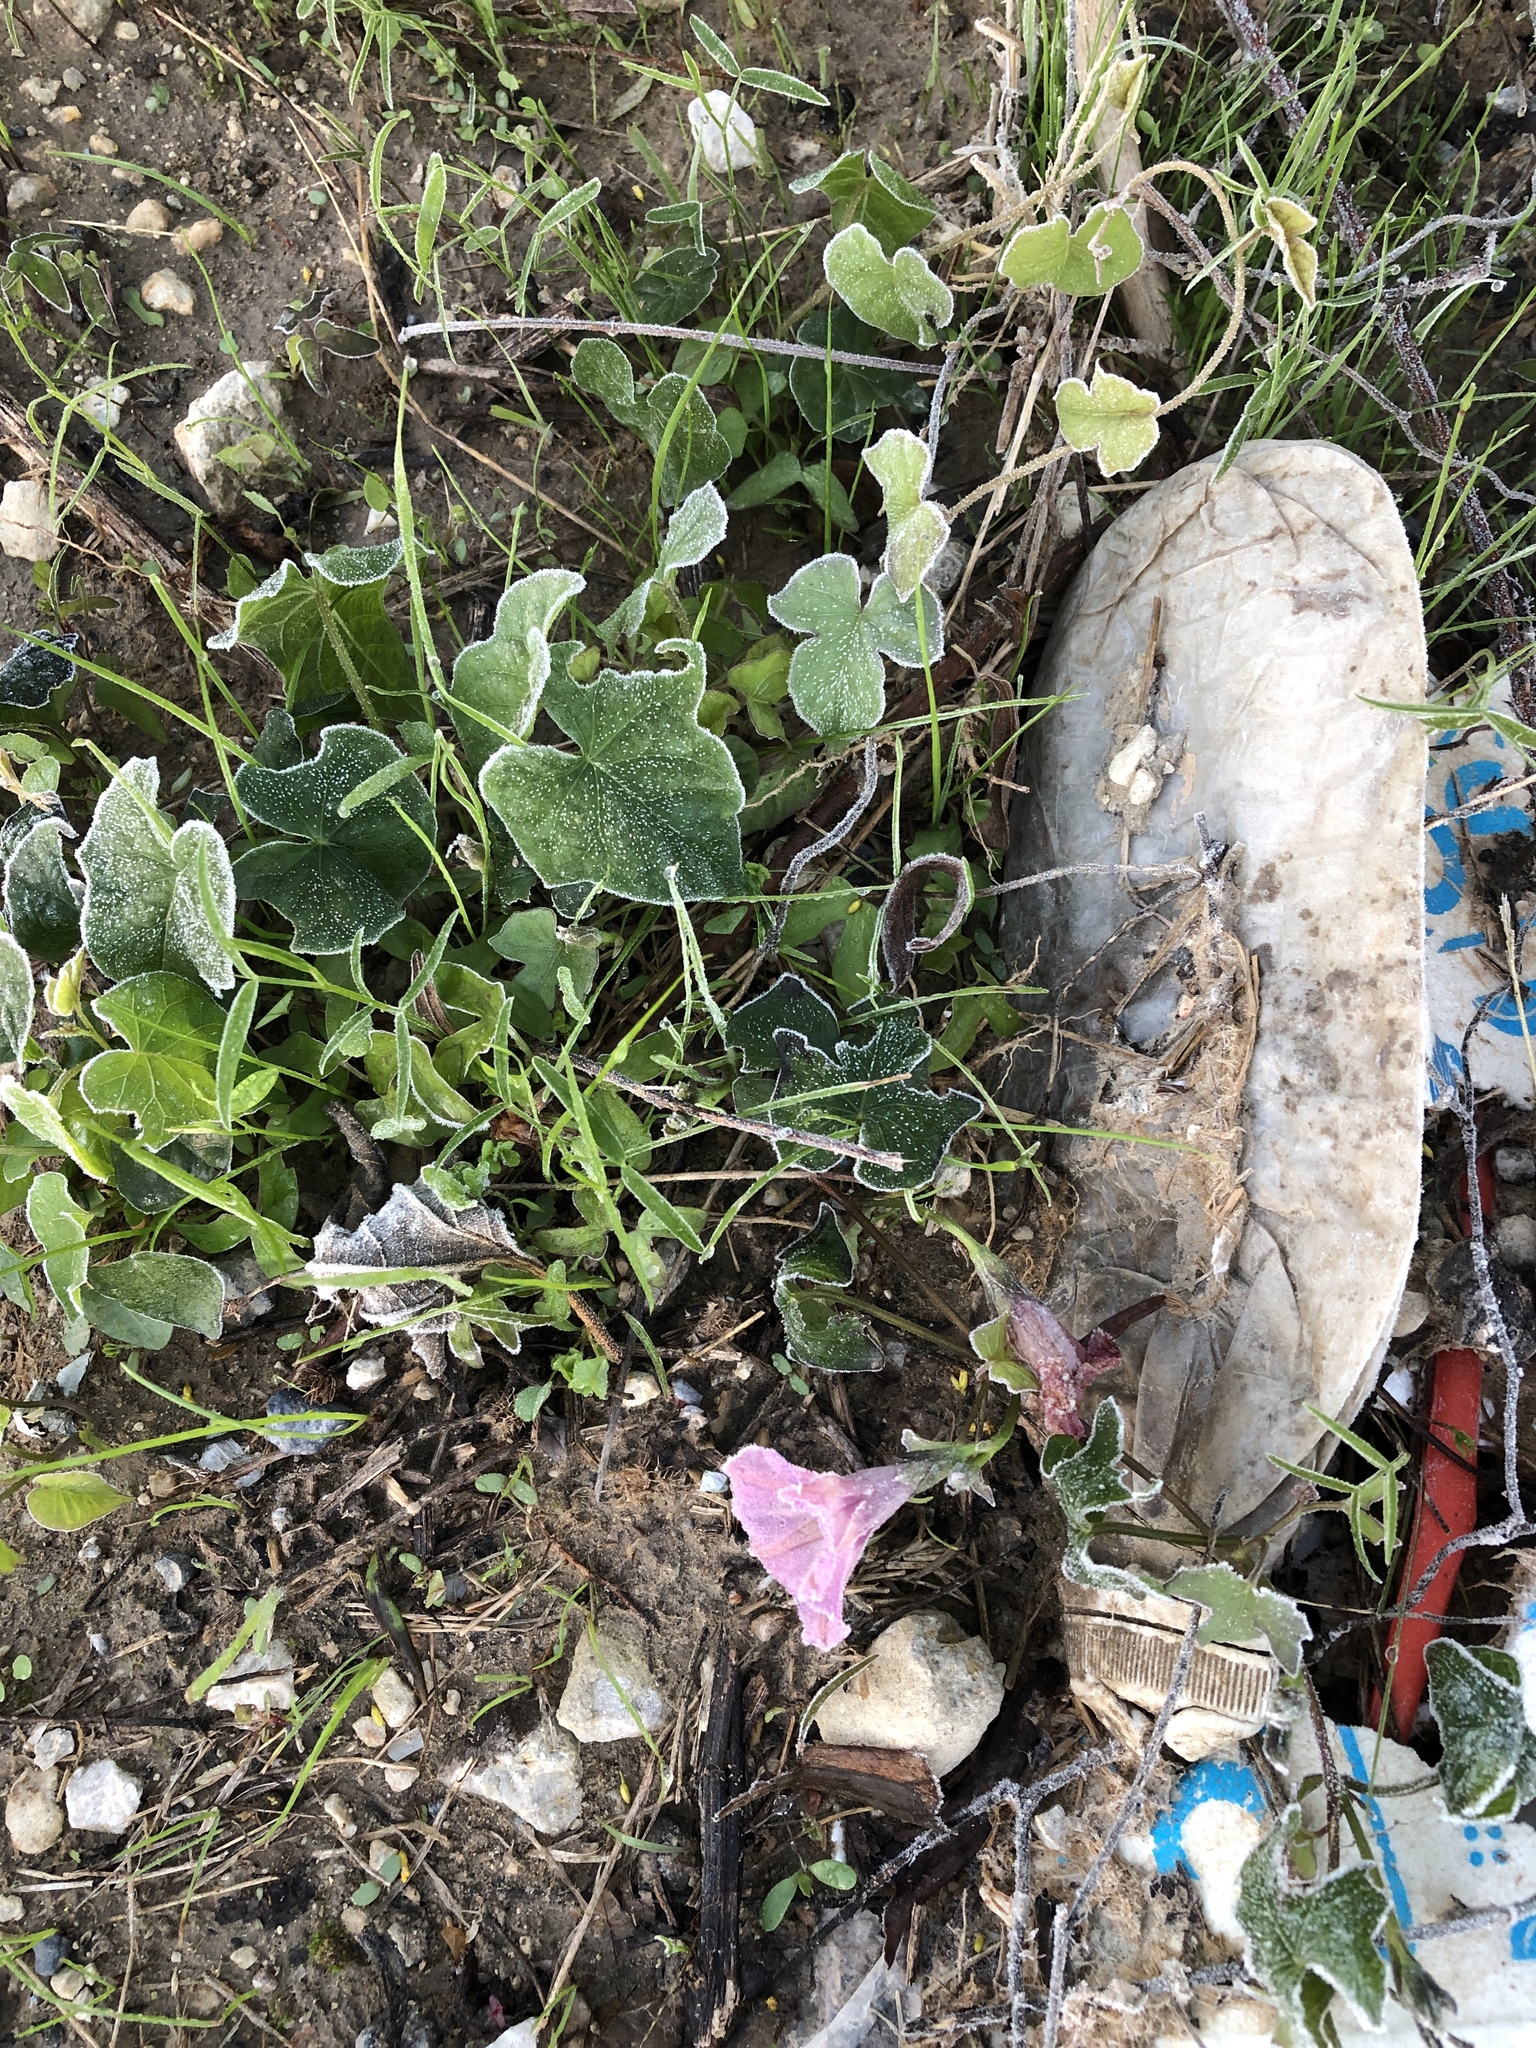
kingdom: Plantae
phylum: Tracheophyta
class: Magnoliopsida
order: Solanales
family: Convolvulaceae
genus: Ipomoea
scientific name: Ipomoea cordatotriloba
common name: Cotton morning glory
